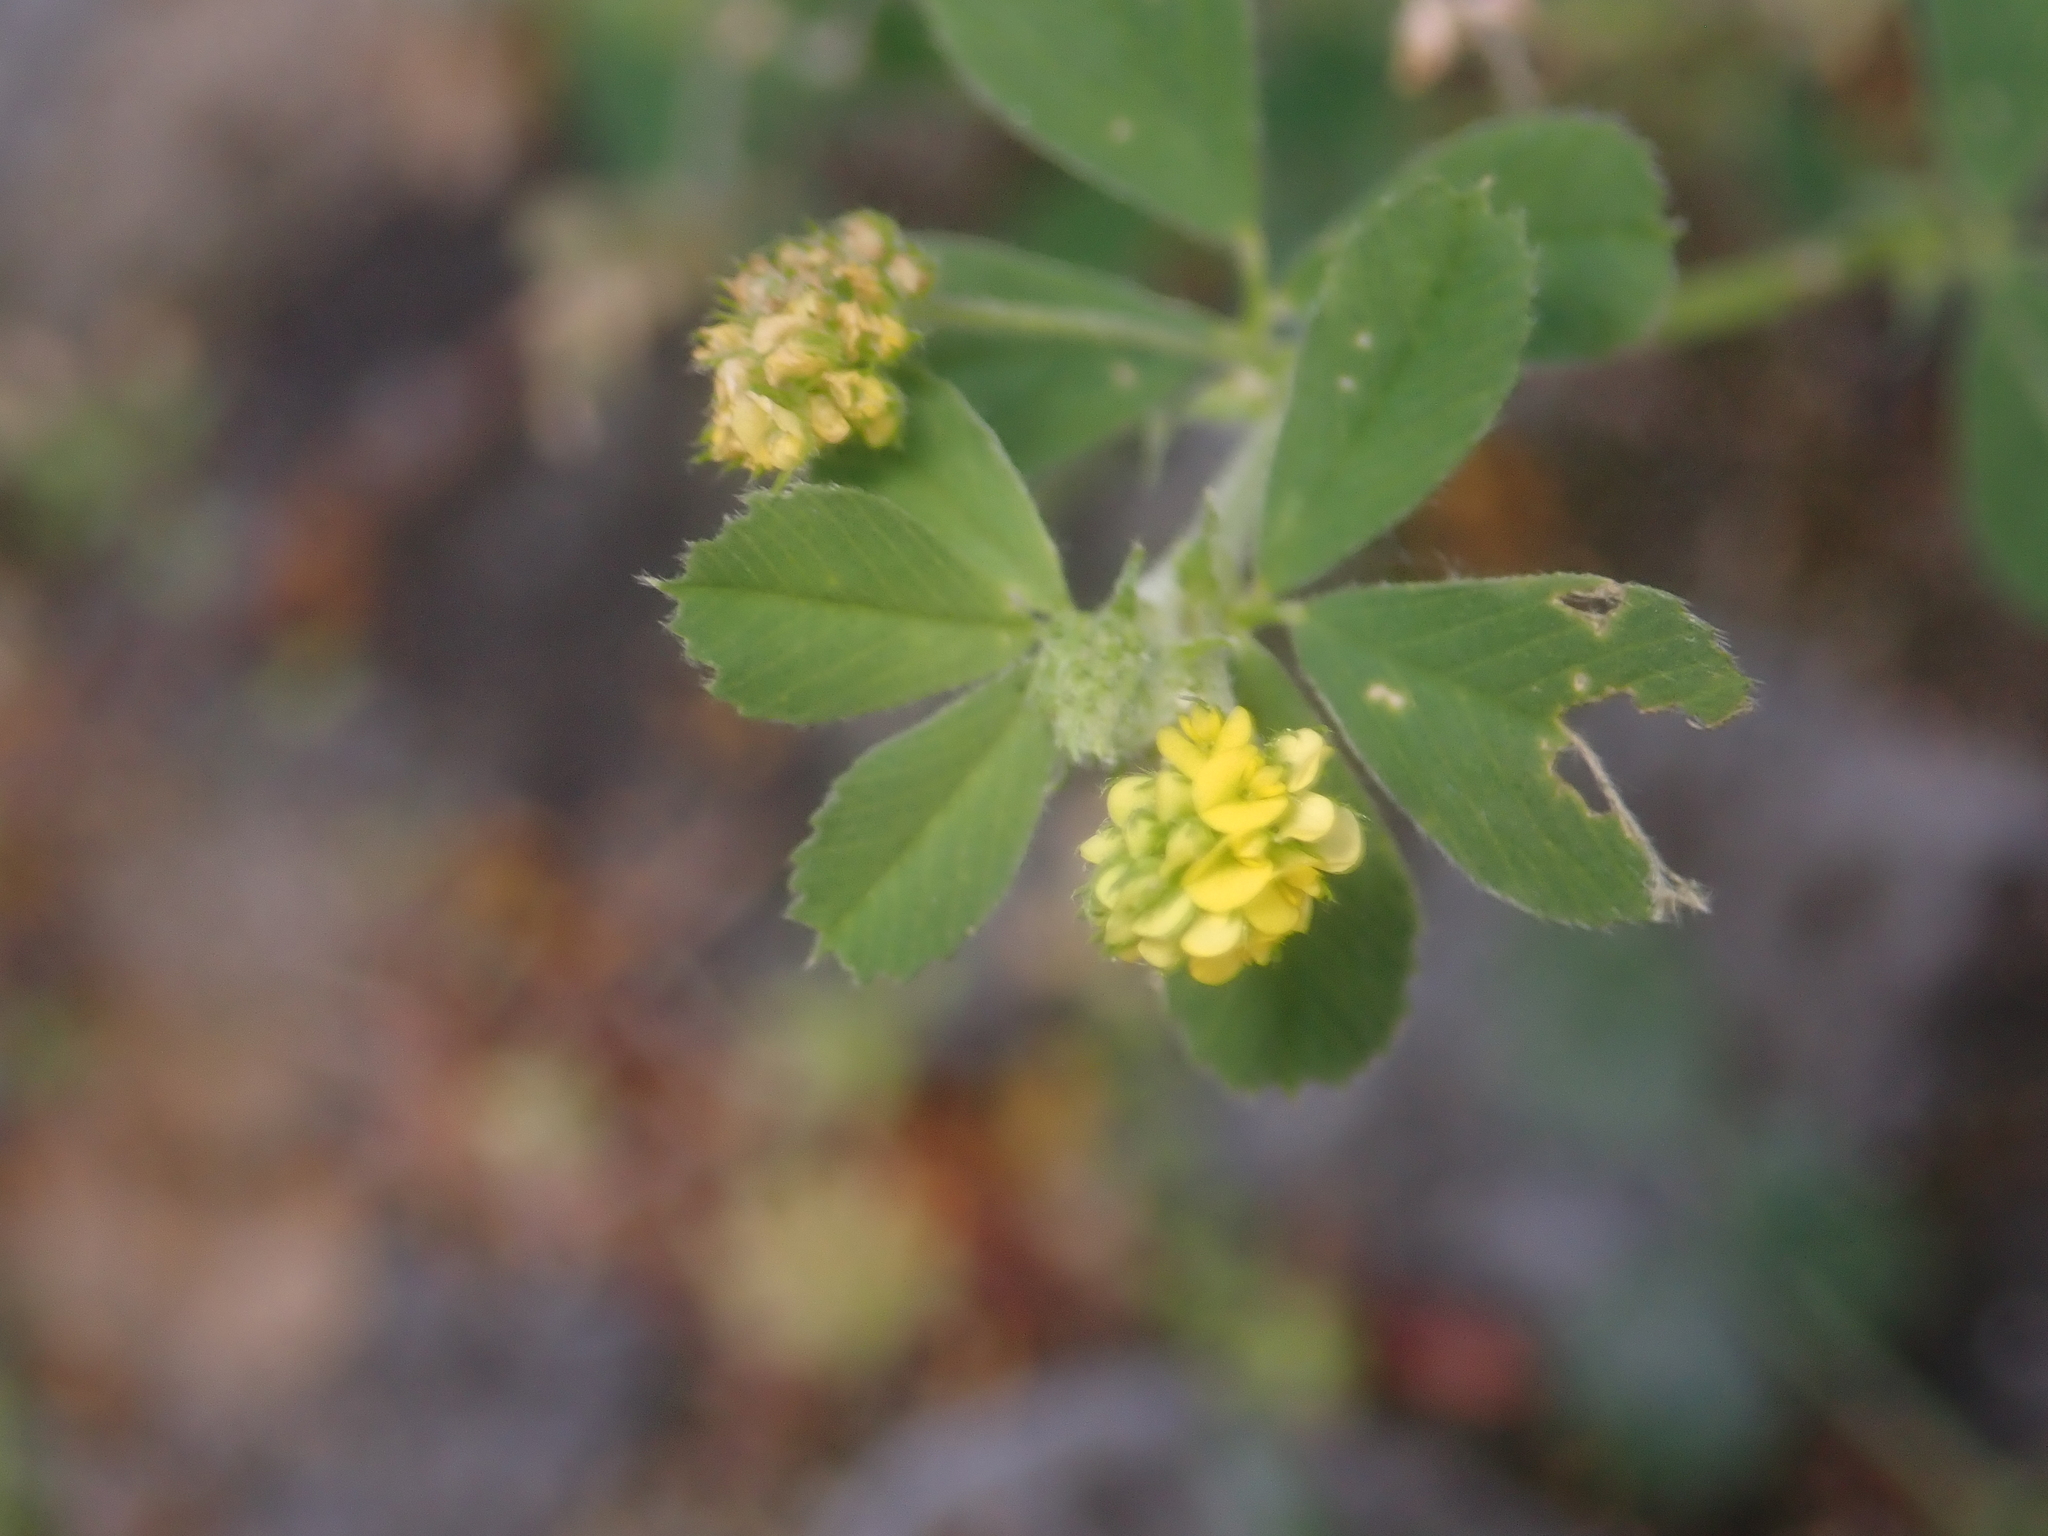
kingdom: Plantae
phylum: Tracheophyta
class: Magnoliopsida
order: Fabales
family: Fabaceae
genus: Medicago
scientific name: Medicago lupulina
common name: Black medick
